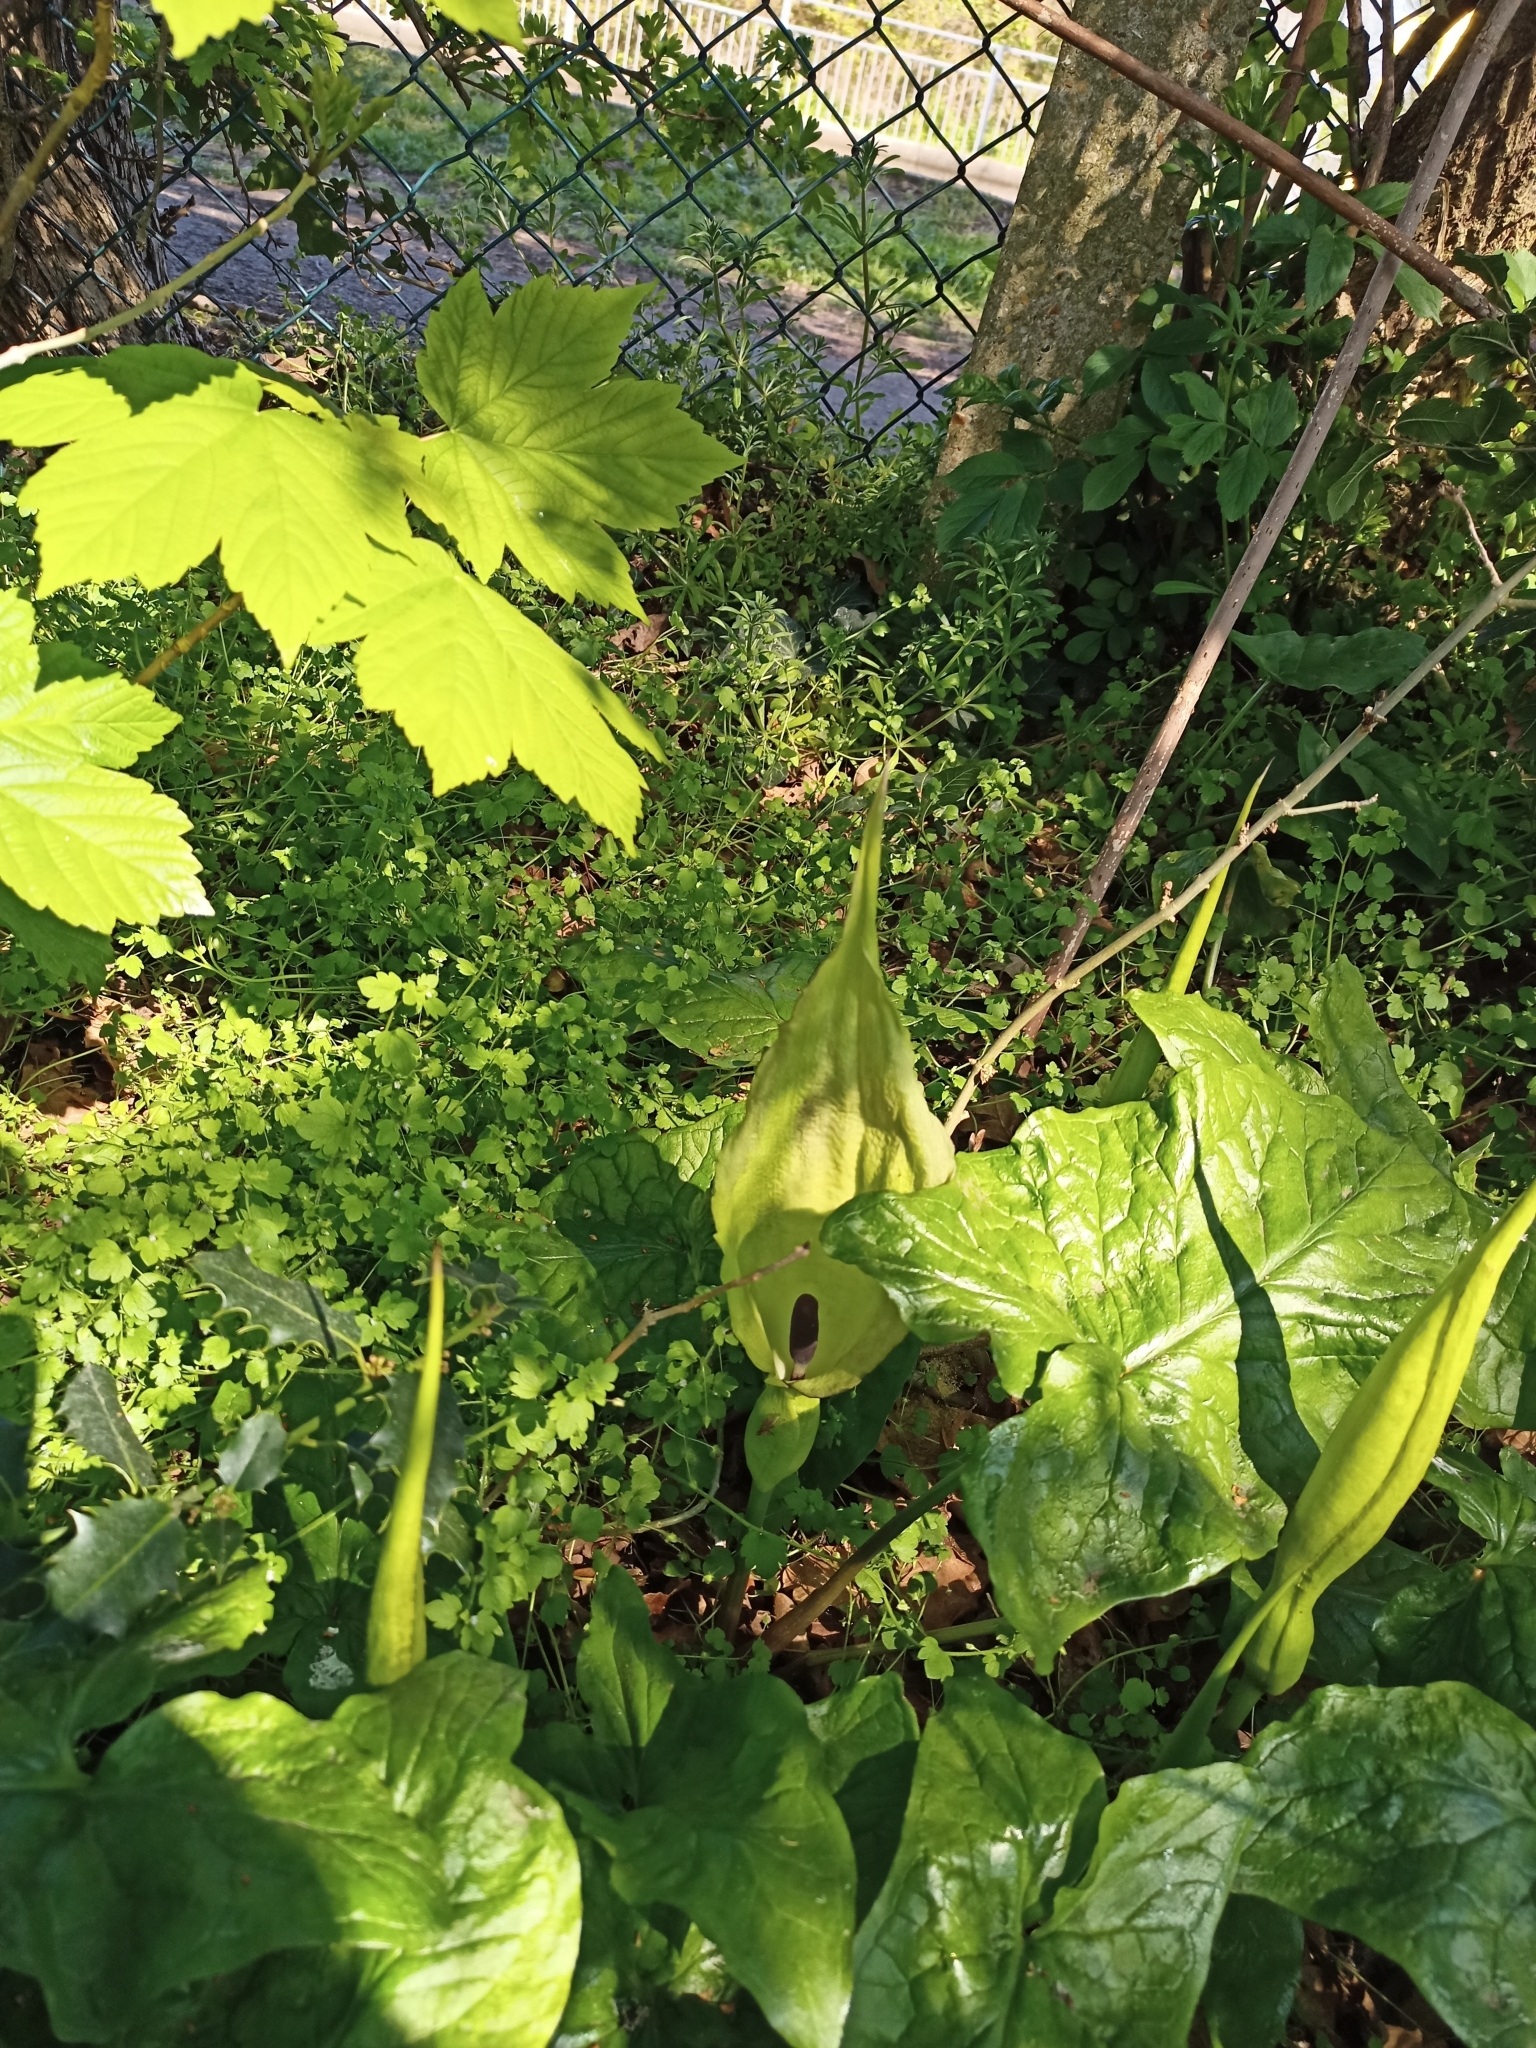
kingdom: Plantae
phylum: Tracheophyta
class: Liliopsida
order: Alismatales
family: Araceae
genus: Arum
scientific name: Arum maculatum
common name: Lords-and-ladies
